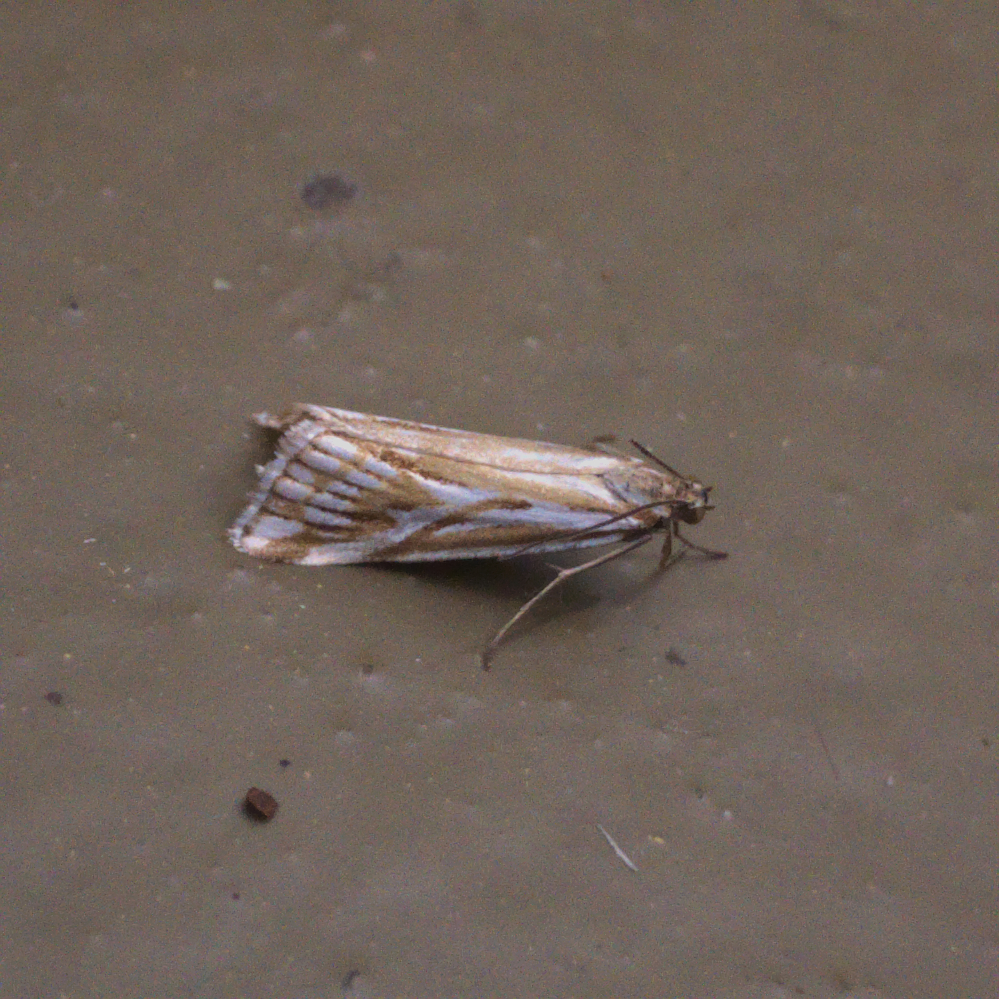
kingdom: Animalia
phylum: Arthropoda
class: Insecta
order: Lepidoptera
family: Crambidae
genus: Hednota
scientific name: Hednota pleniferellus
